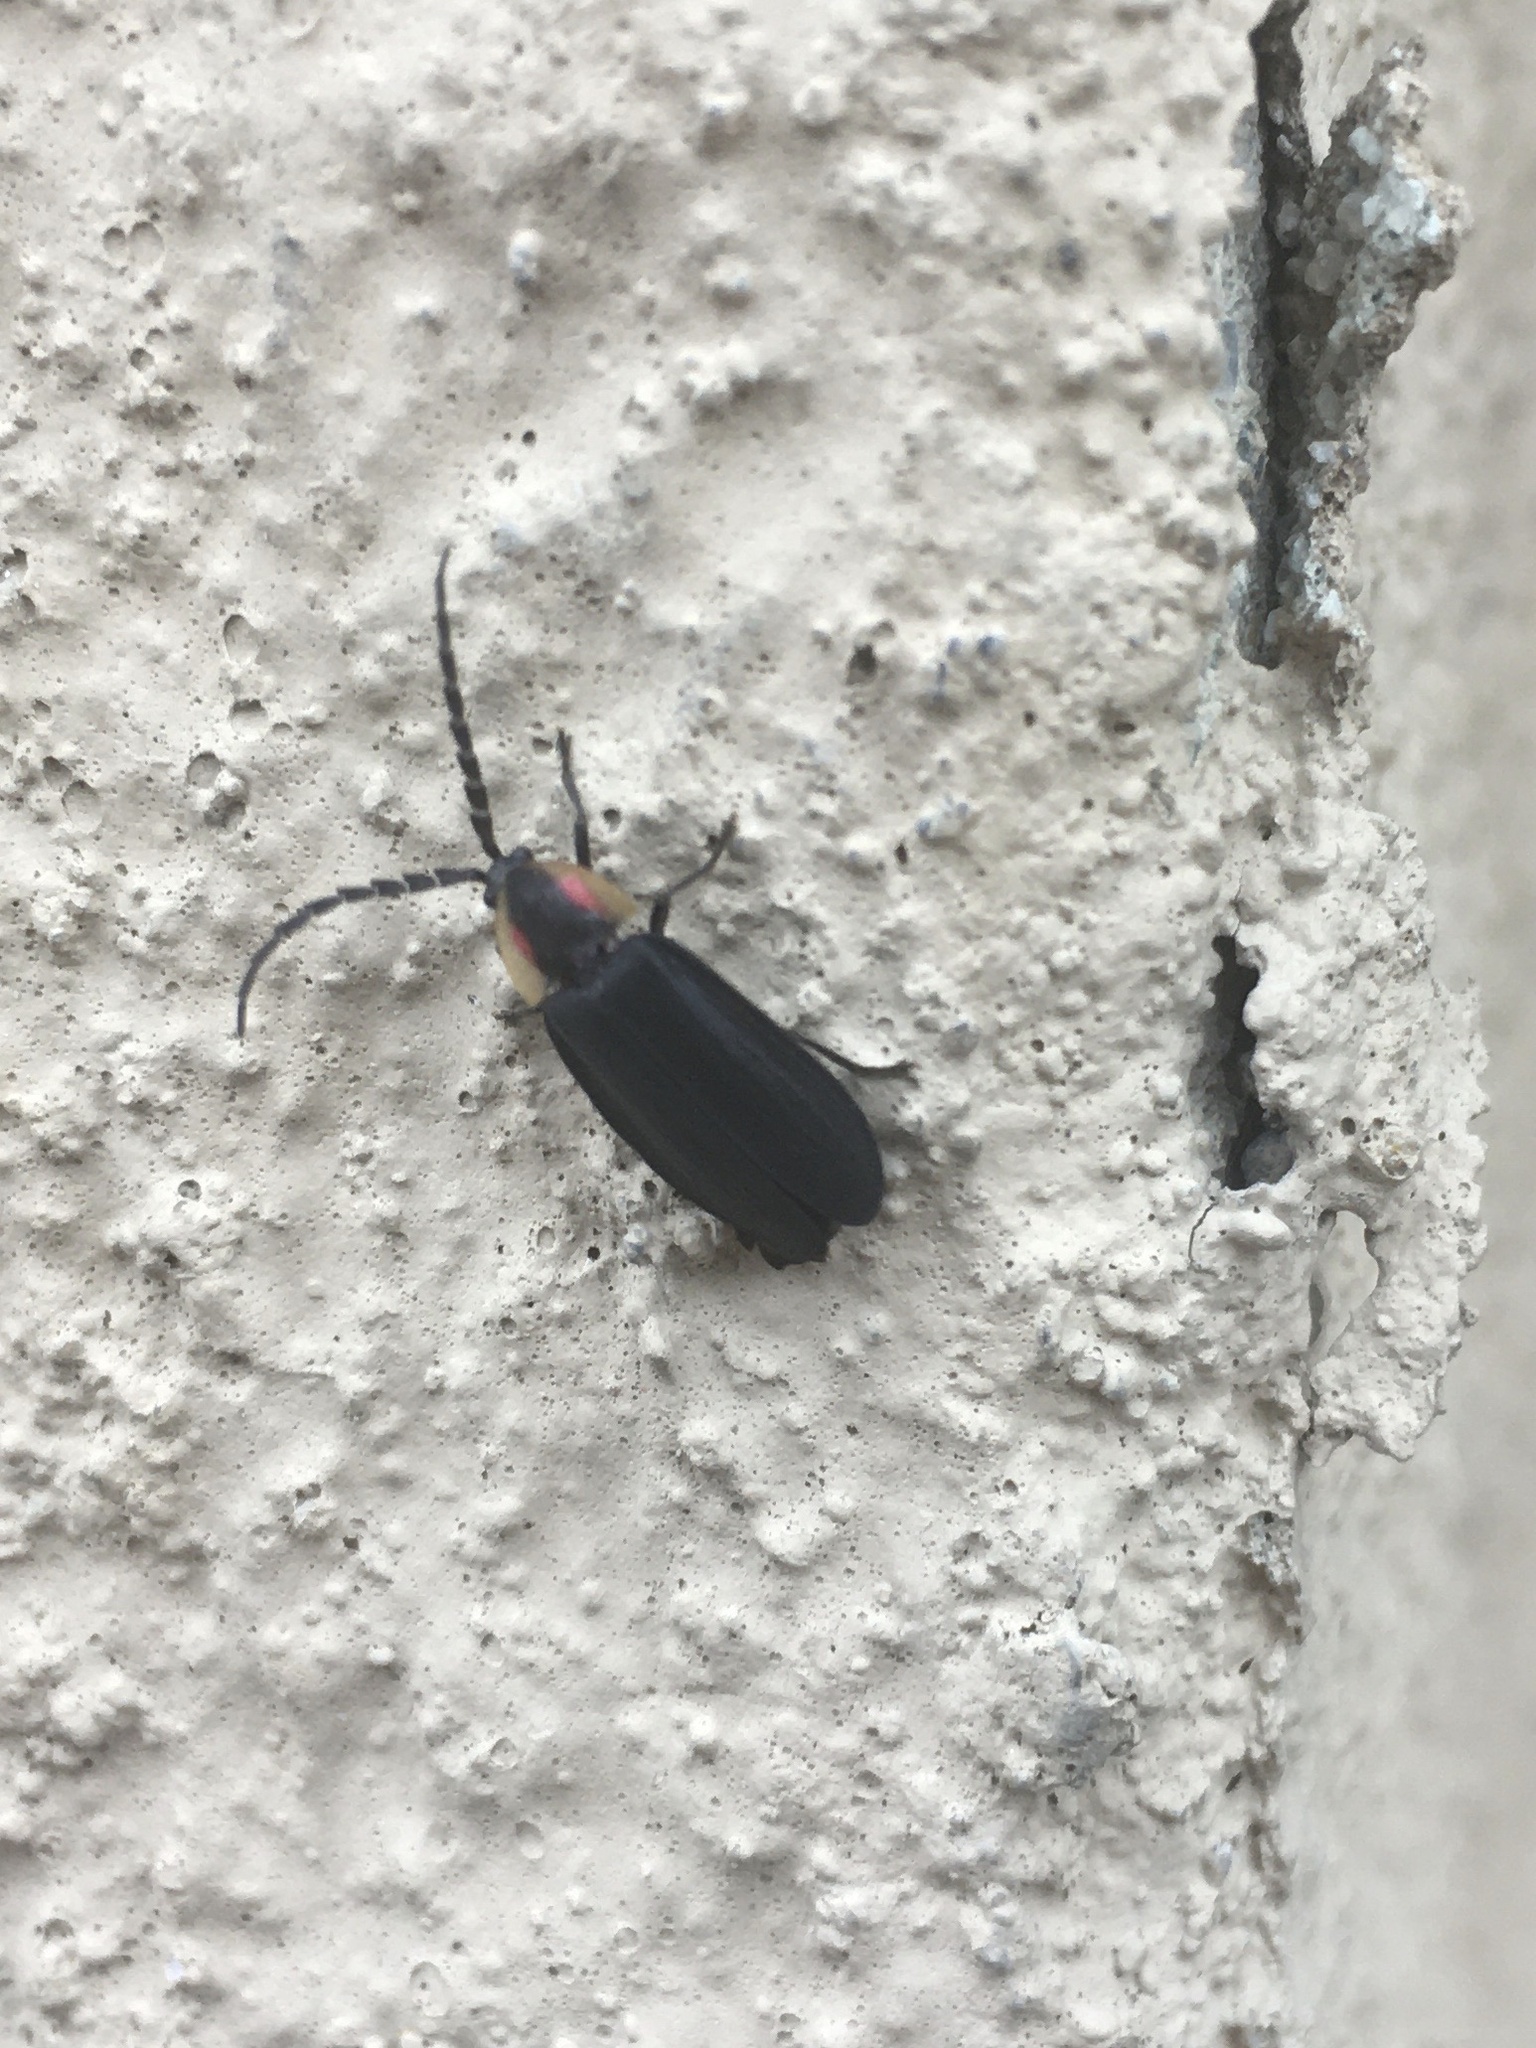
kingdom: Animalia
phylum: Arthropoda
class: Insecta
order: Coleoptera
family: Lampyridae
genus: Lucidota
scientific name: Lucidota atra
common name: Black firefly
